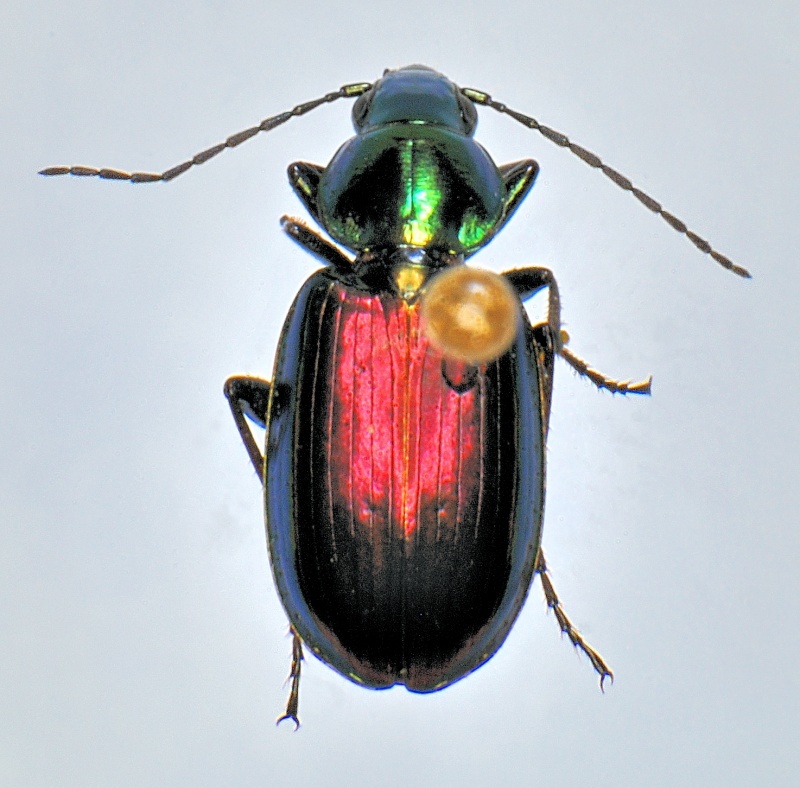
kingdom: Animalia
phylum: Arthropoda
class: Insecta
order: Coleoptera
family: Carabidae
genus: Agonum
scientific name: Agonum cupripenne
